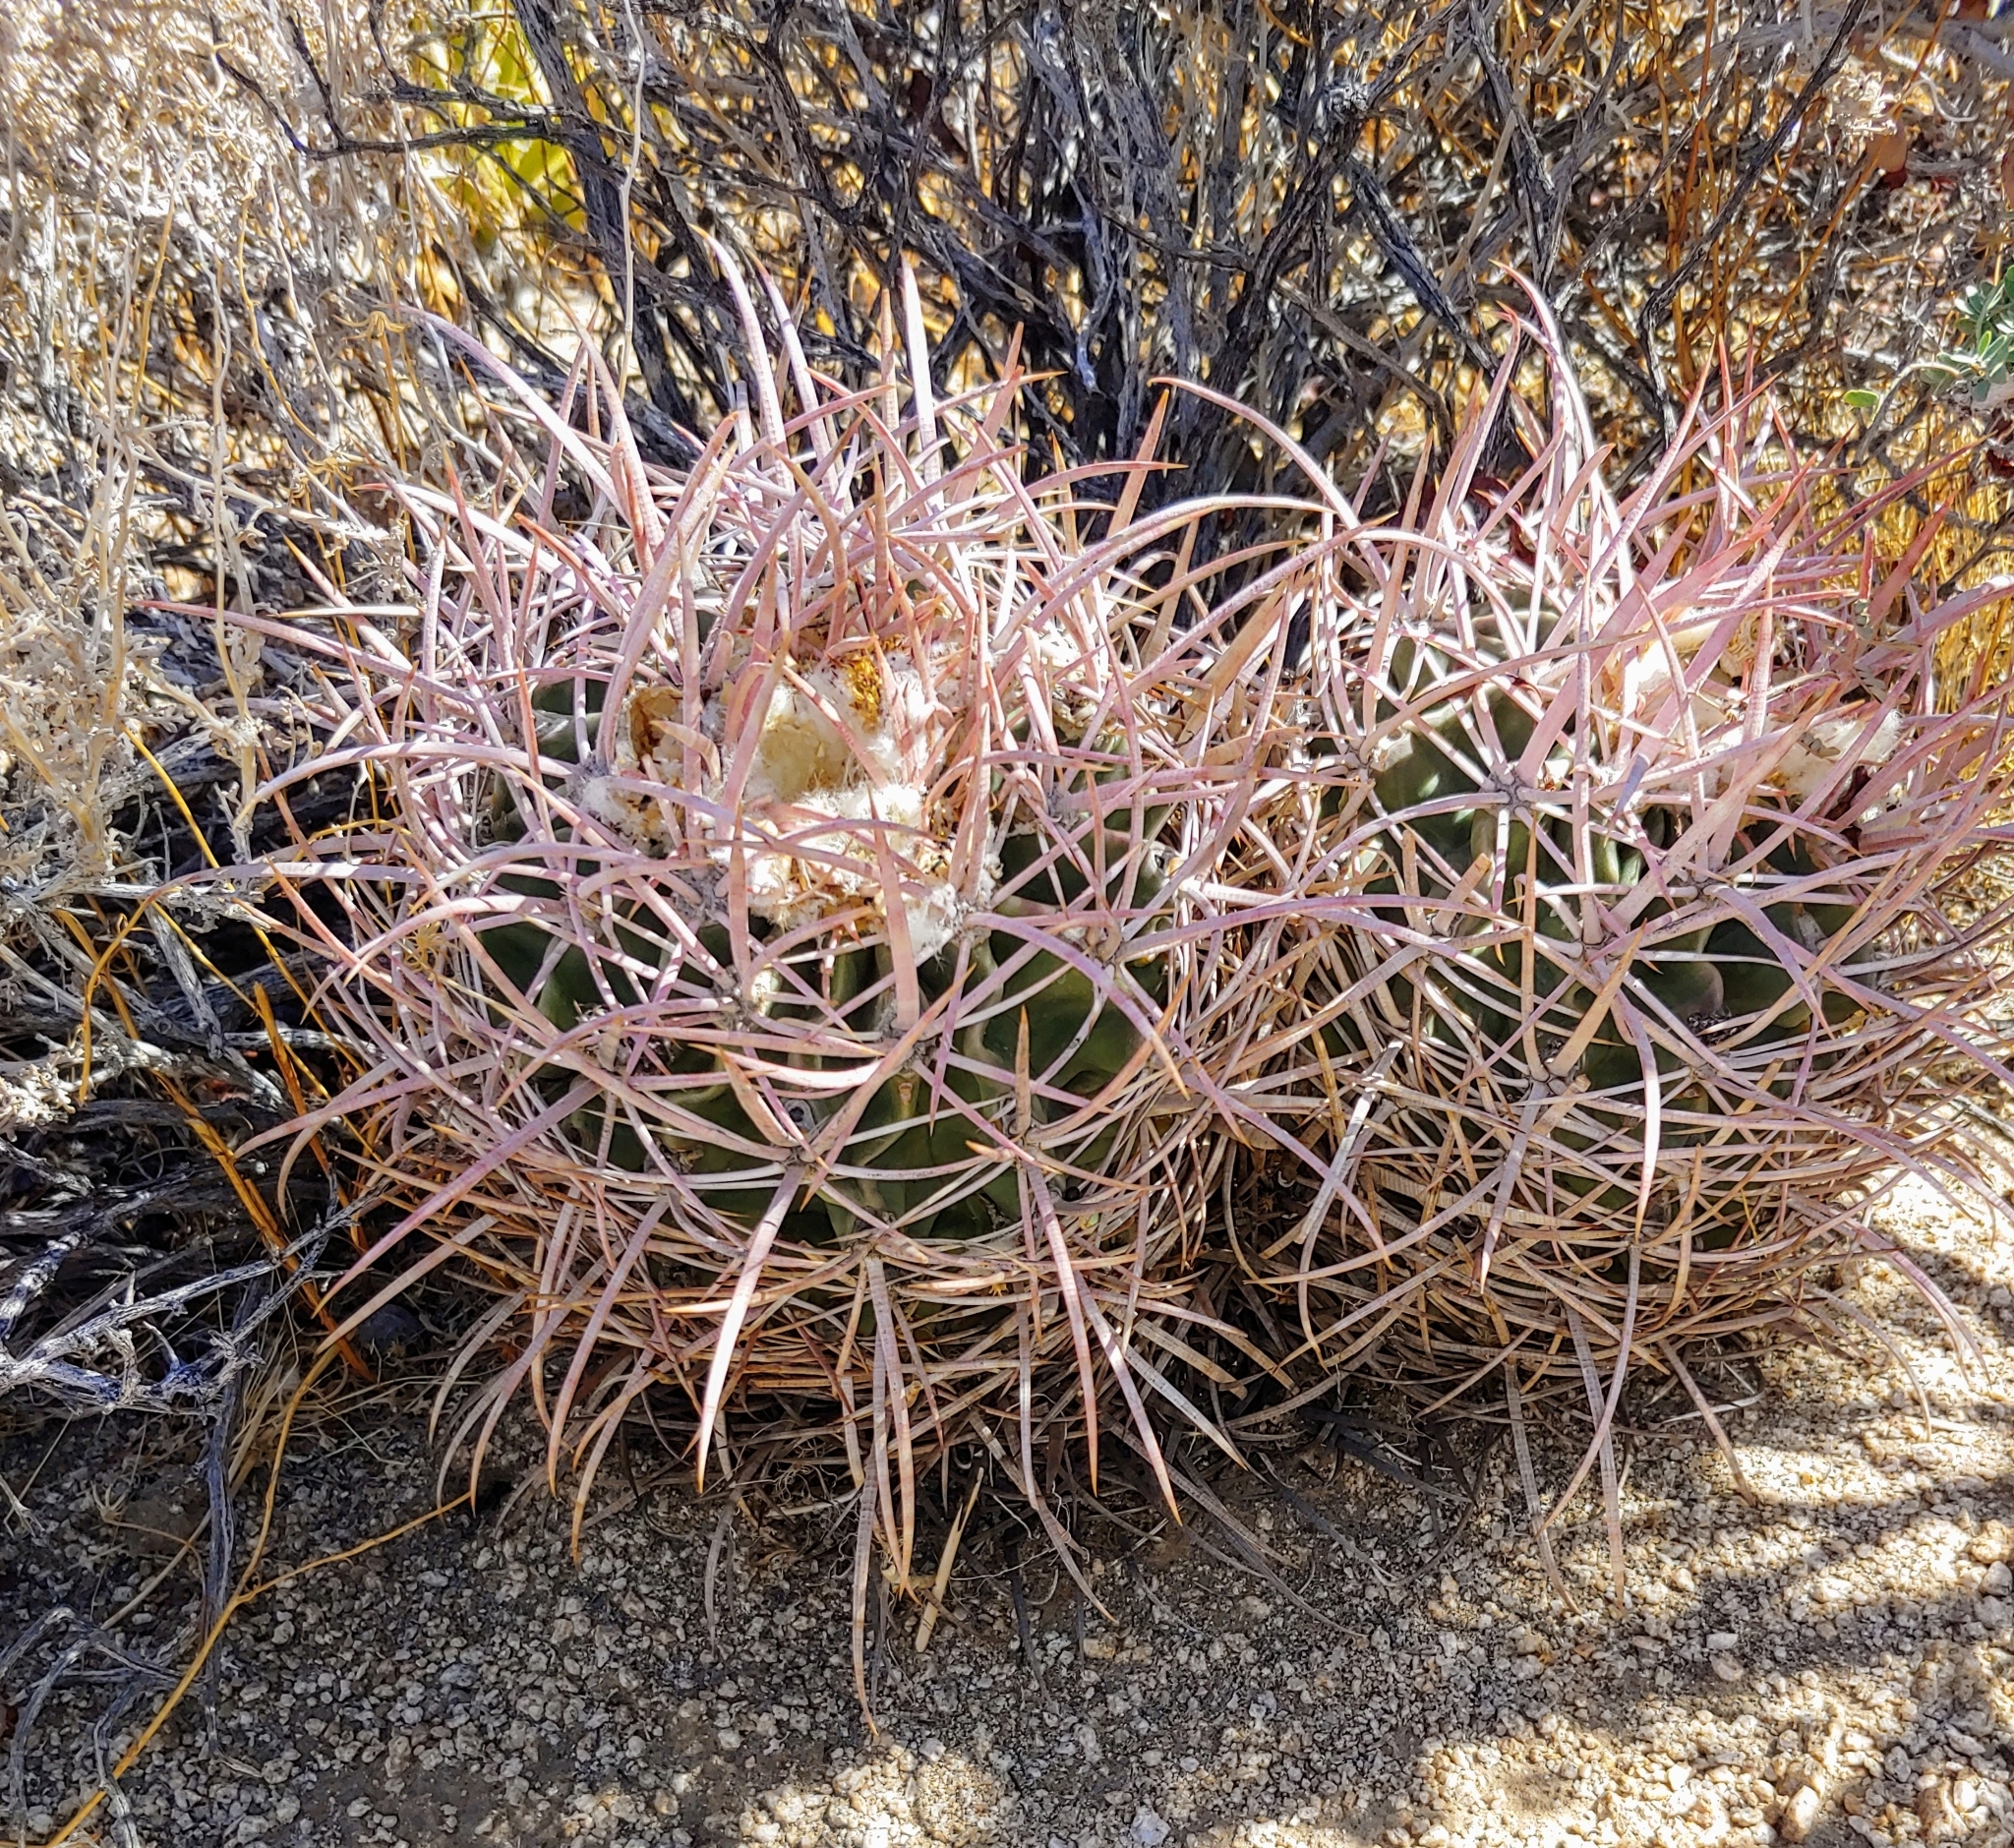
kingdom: Plantae
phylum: Tracheophyta
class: Magnoliopsida
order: Caryophyllales
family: Cactaceae
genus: Echinocactus
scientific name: Echinocactus polycephalus
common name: Cottontop cactus
